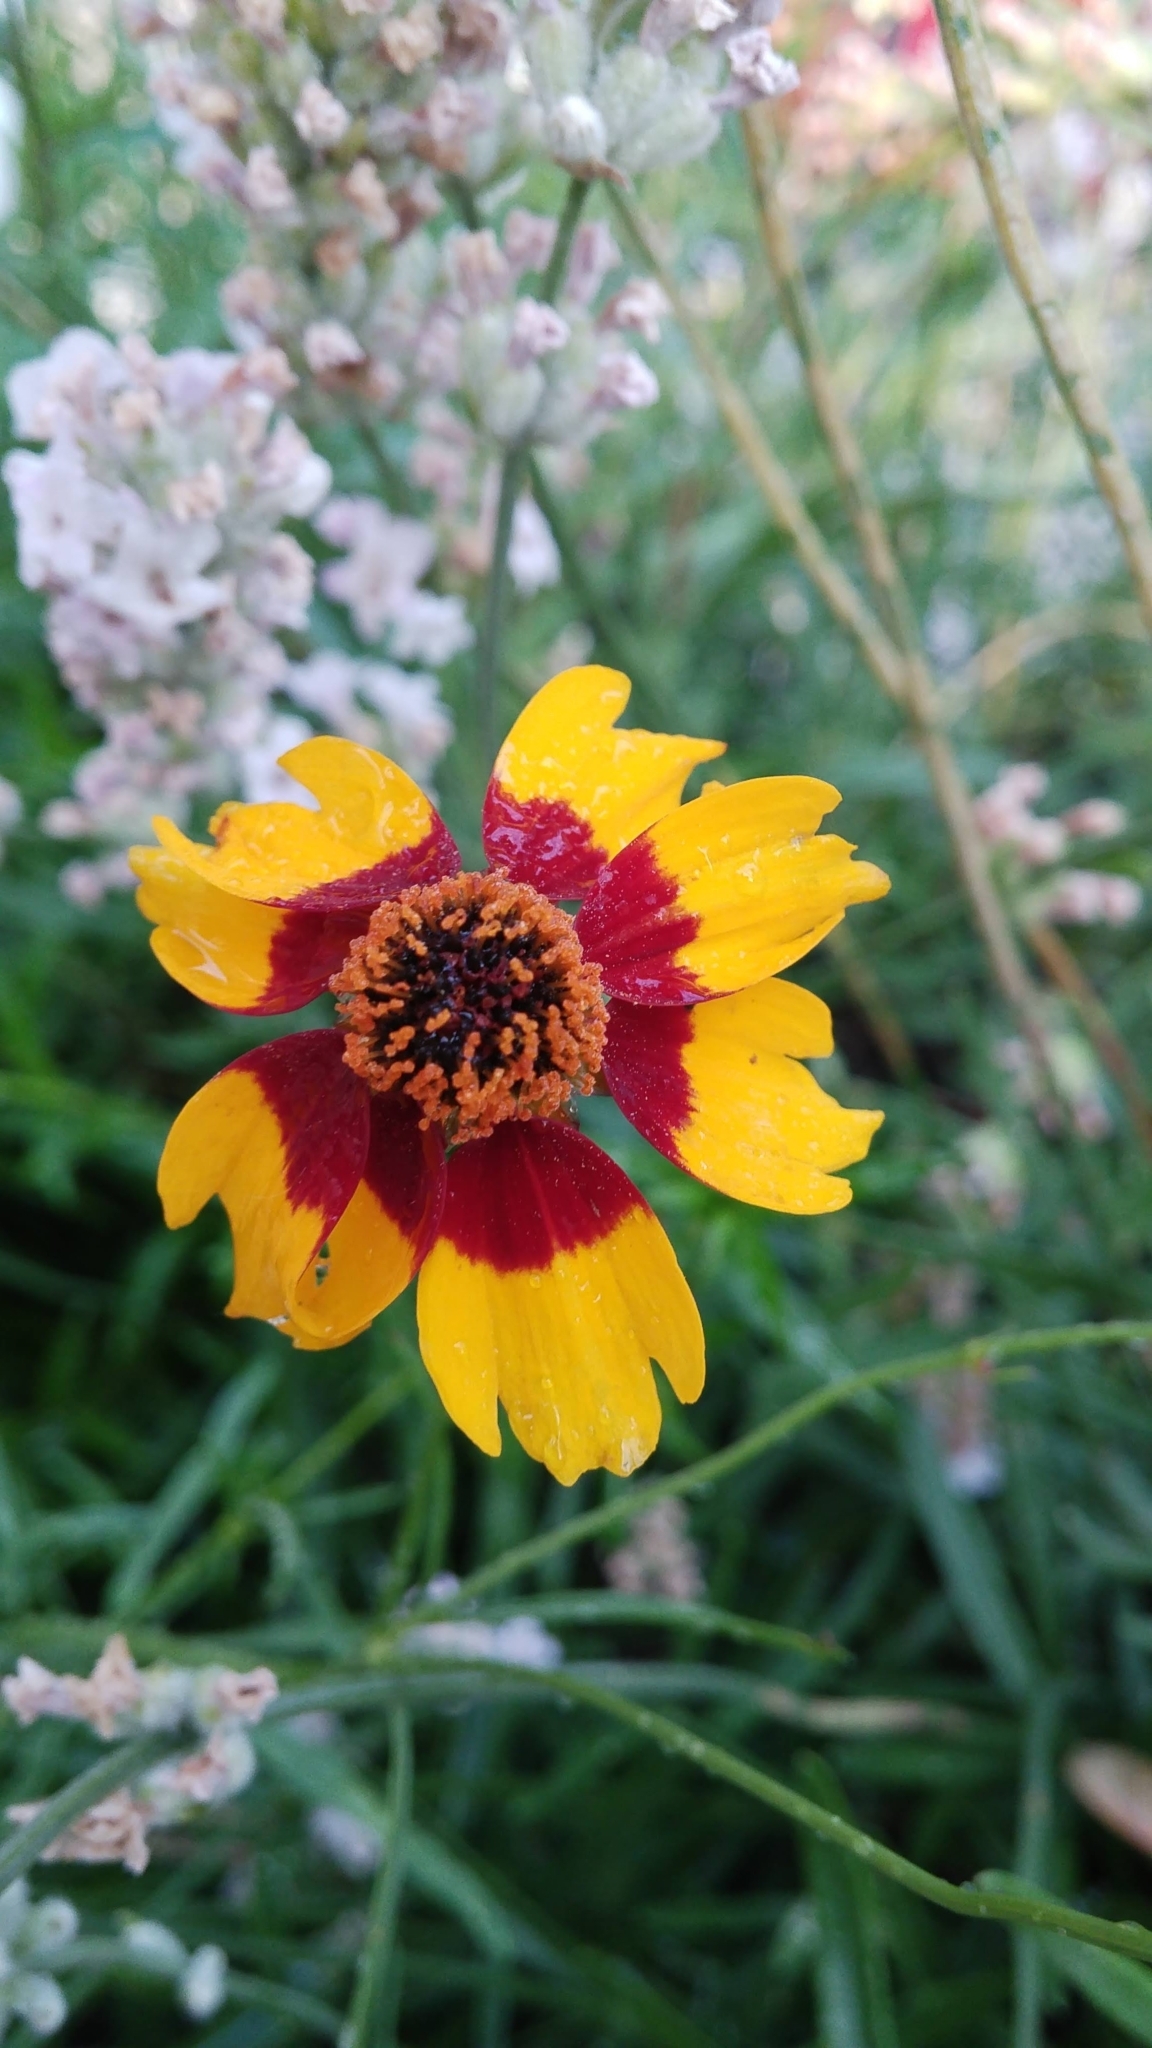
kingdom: Plantae
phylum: Tracheophyta
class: Magnoliopsida
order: Asterales
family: Asteraceae
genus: Coreopsis
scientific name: Coreopsis tinctoria
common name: Garden tickseed
